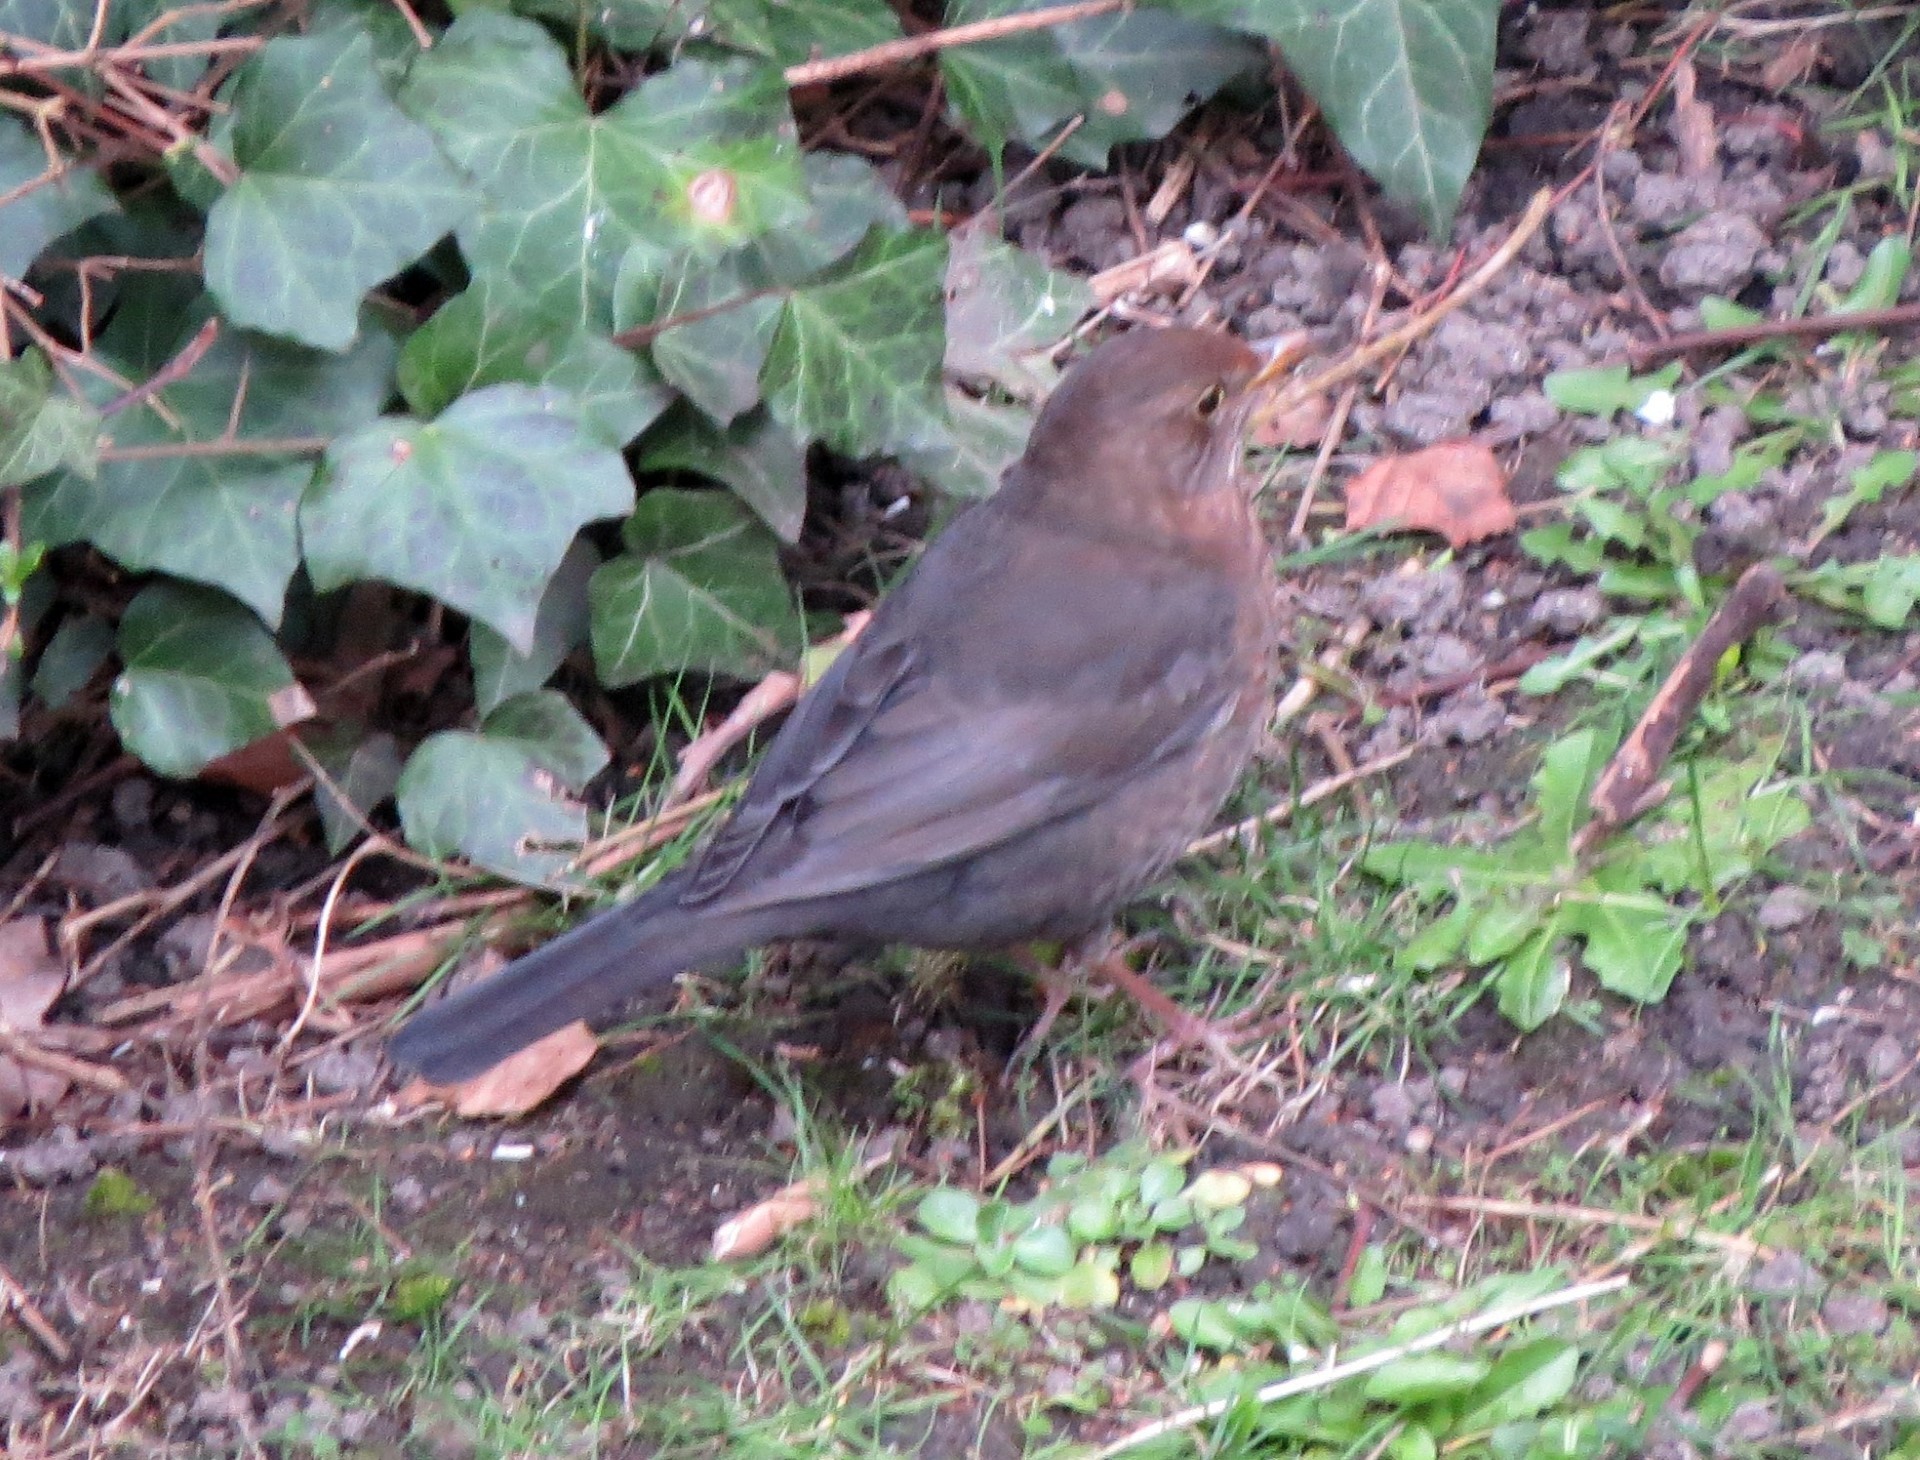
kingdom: Animalia
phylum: Chordata
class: Aves
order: Passeriformes
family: Turdidae
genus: Turdus
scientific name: Turdus merula
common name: Common blackbird
